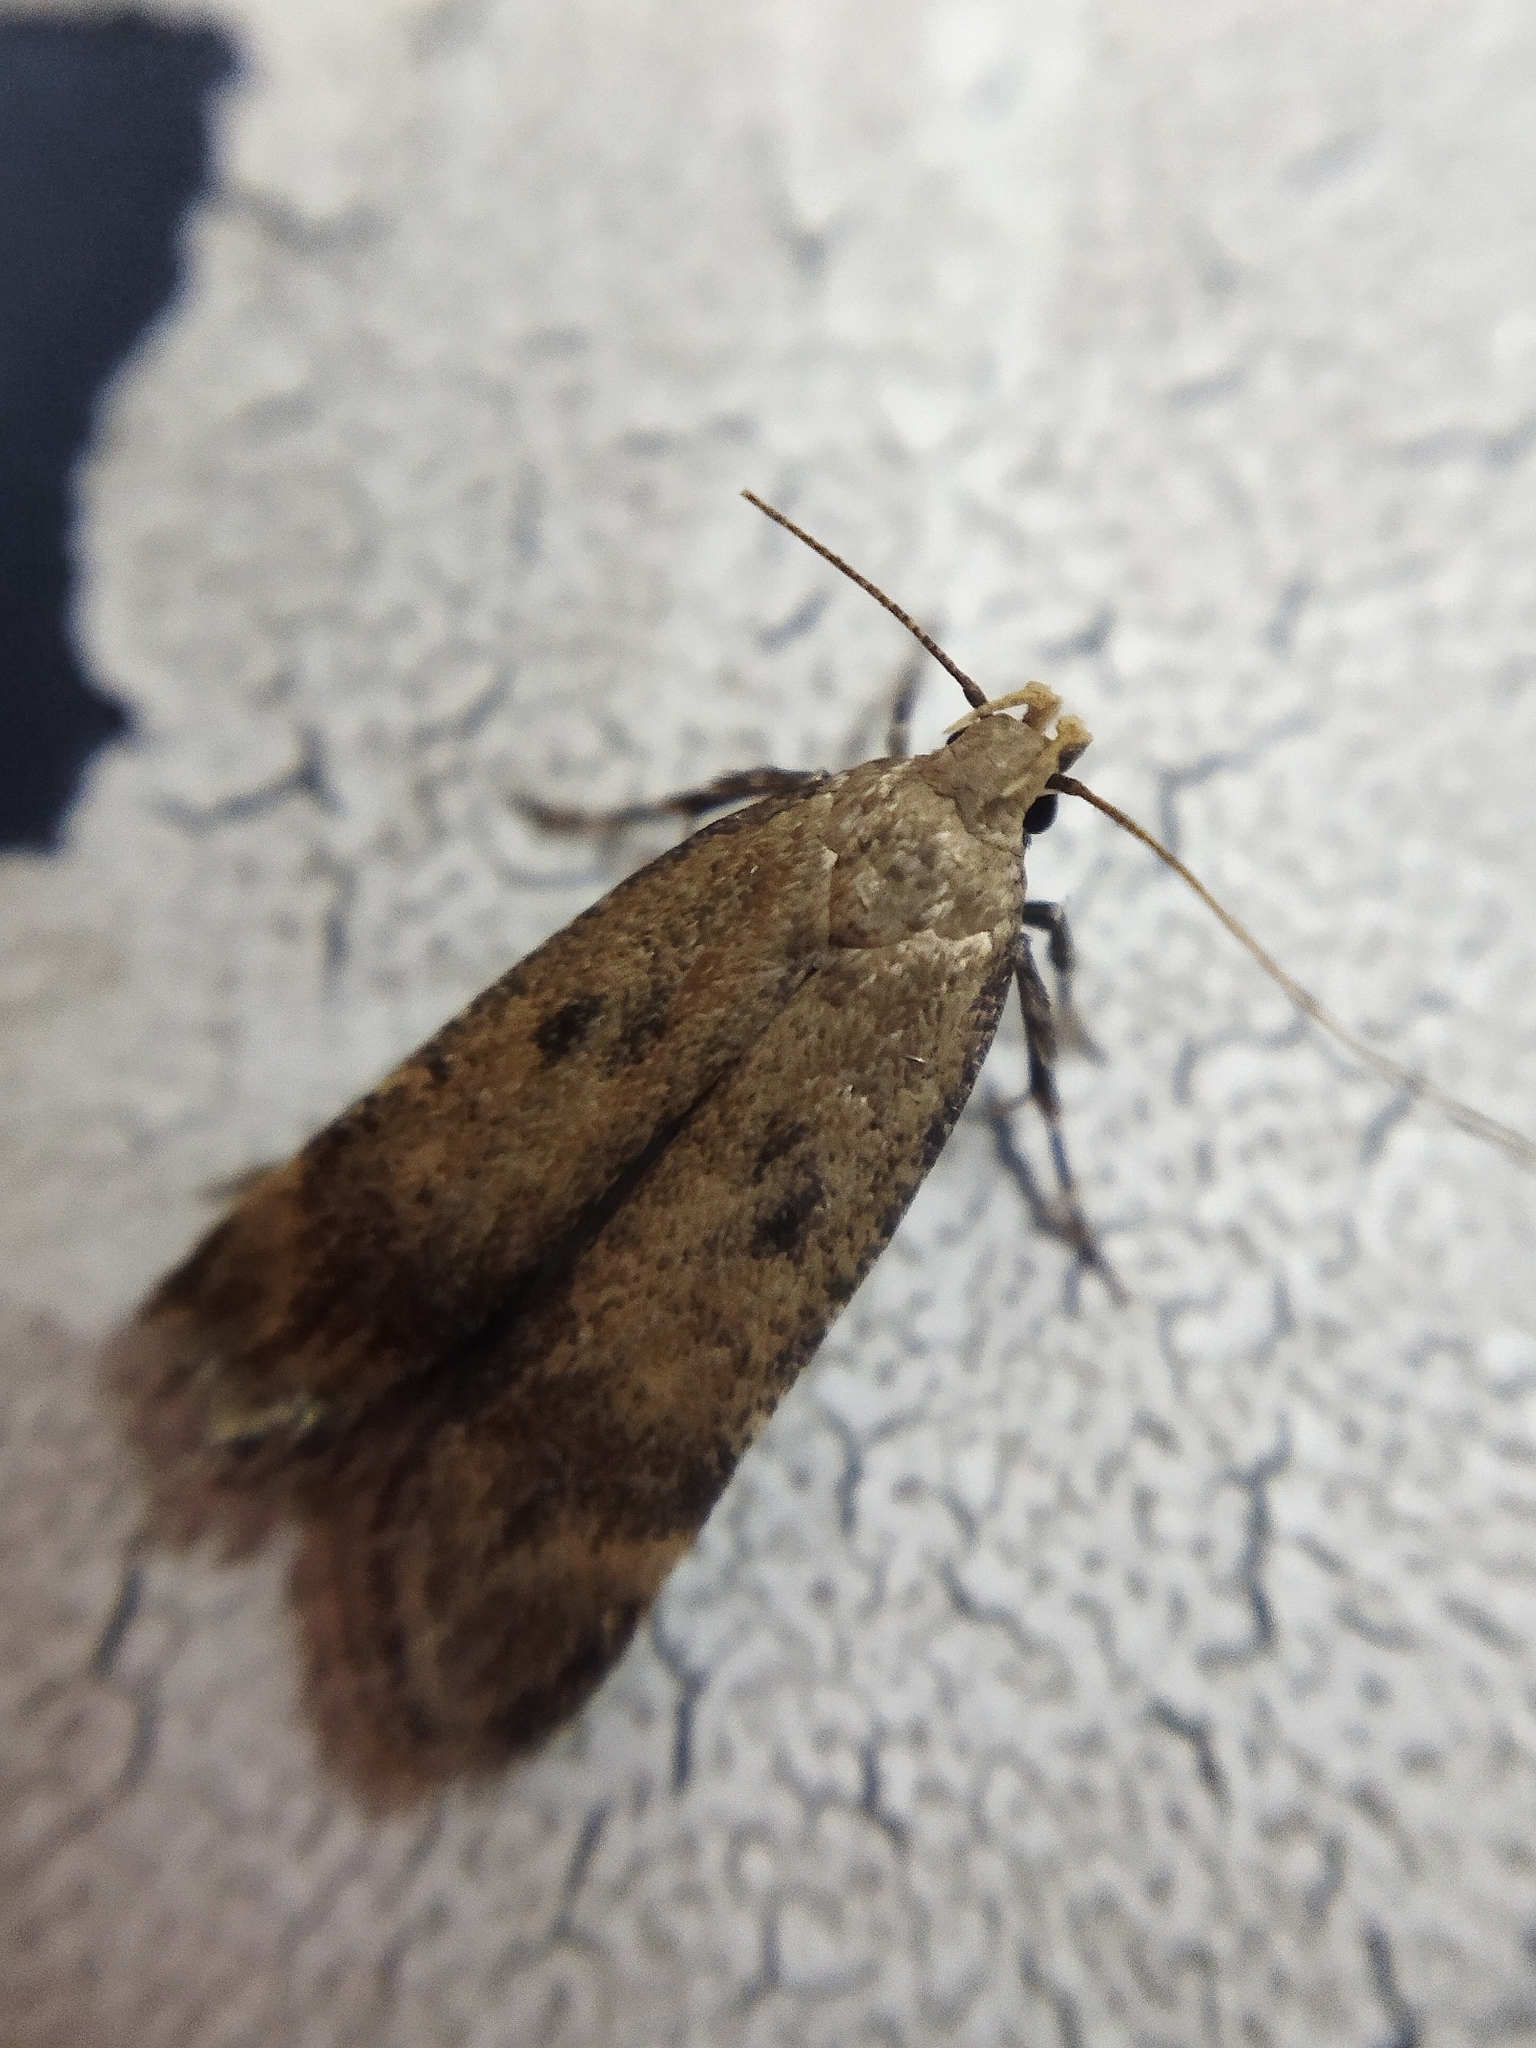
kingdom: Animalia
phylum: Arthropoda
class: Insecta
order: Lepidoptera
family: Gelechiidae
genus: Pexicopia
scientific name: Pexicopia malvella
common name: Hollyhock seed moth
